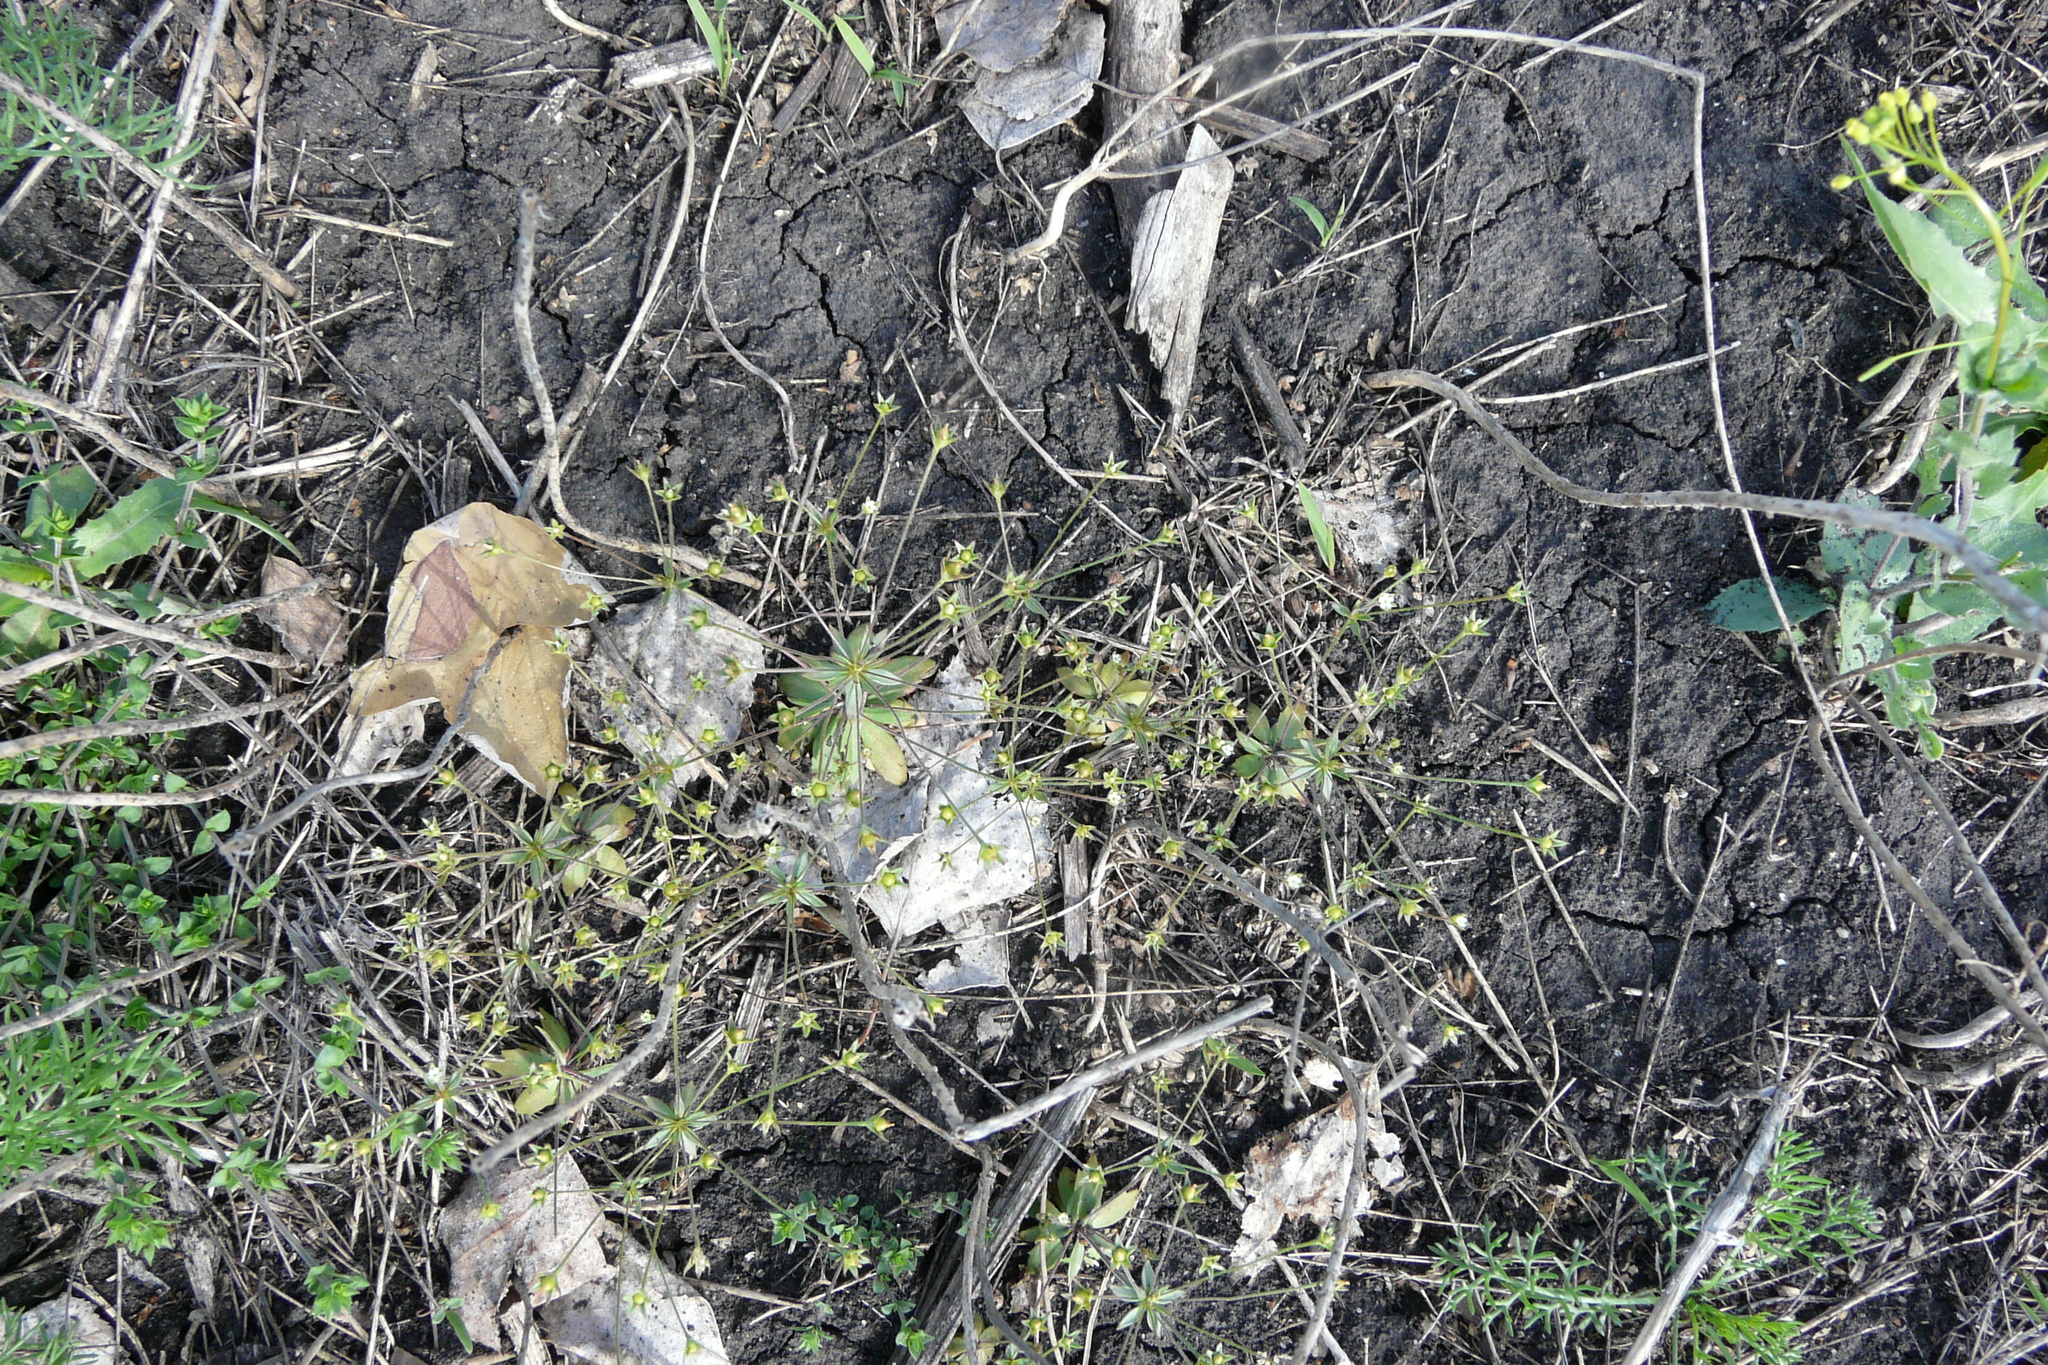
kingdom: Plantae
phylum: Tracheophyta
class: Magnoliopsida
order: Ericales
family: Primulaceae
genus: Androsace
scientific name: Androsace elongata
